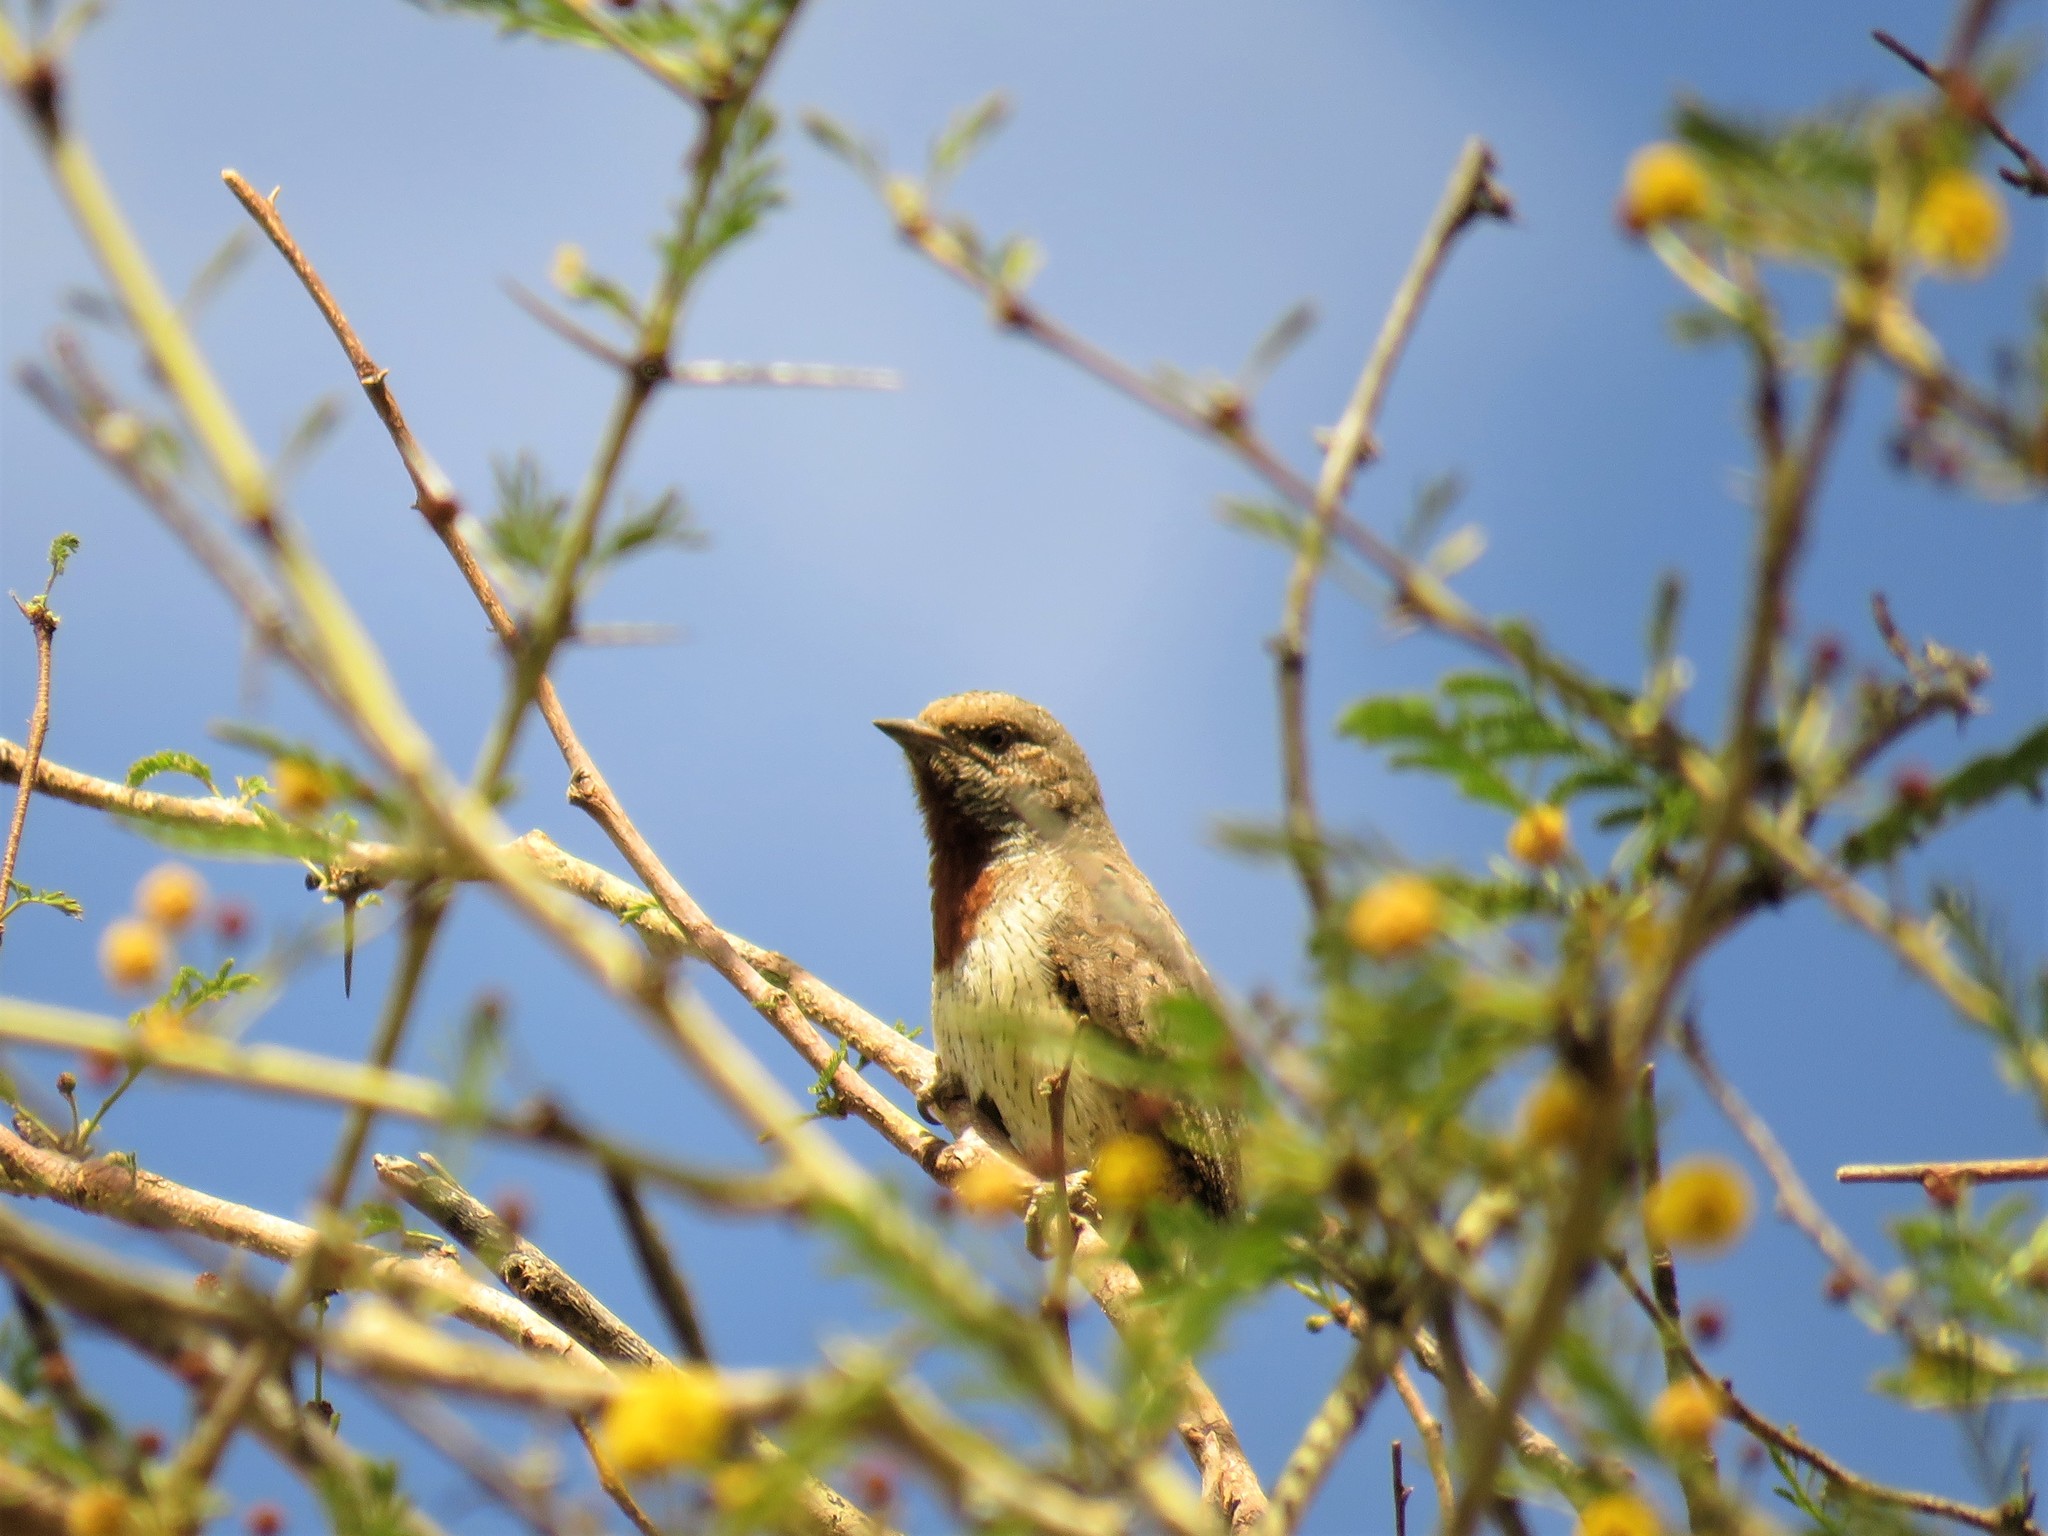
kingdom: Animalia
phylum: Chordata
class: Aves
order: Piciformes
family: Picidae
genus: Jynx
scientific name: Jynx ruficollis
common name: Red-throated wryneck
